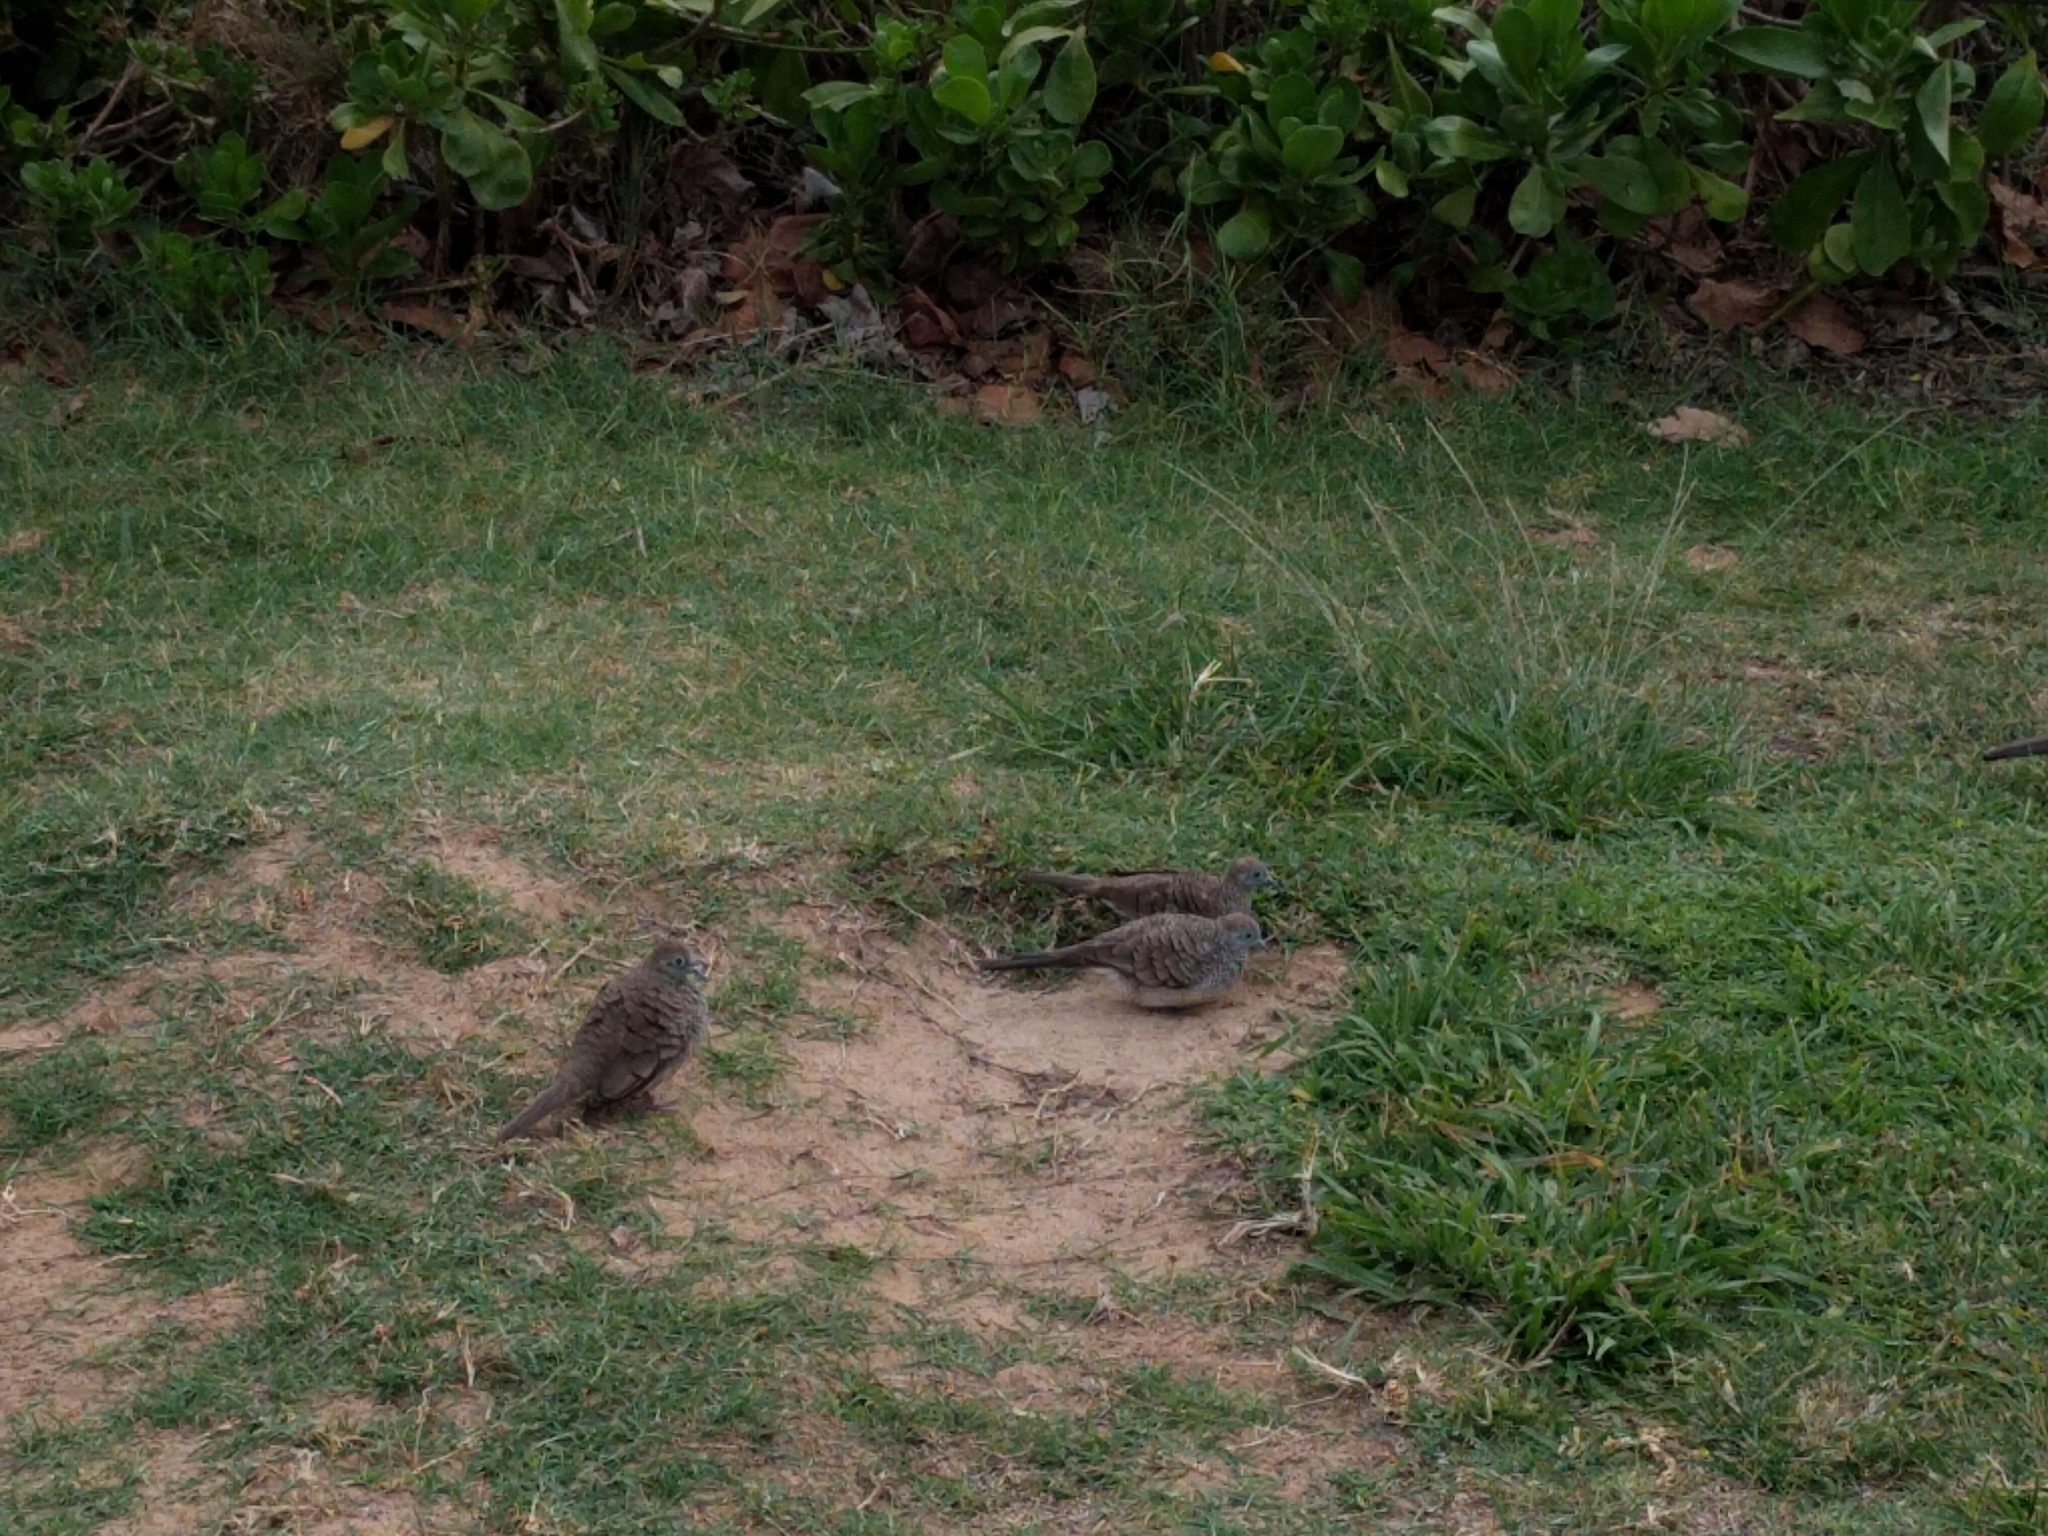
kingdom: Animalia
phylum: Chordata
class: Aves
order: Columbiformes
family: Columbidae
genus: Geopelia
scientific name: Geopelia striata
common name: Zebra dove
